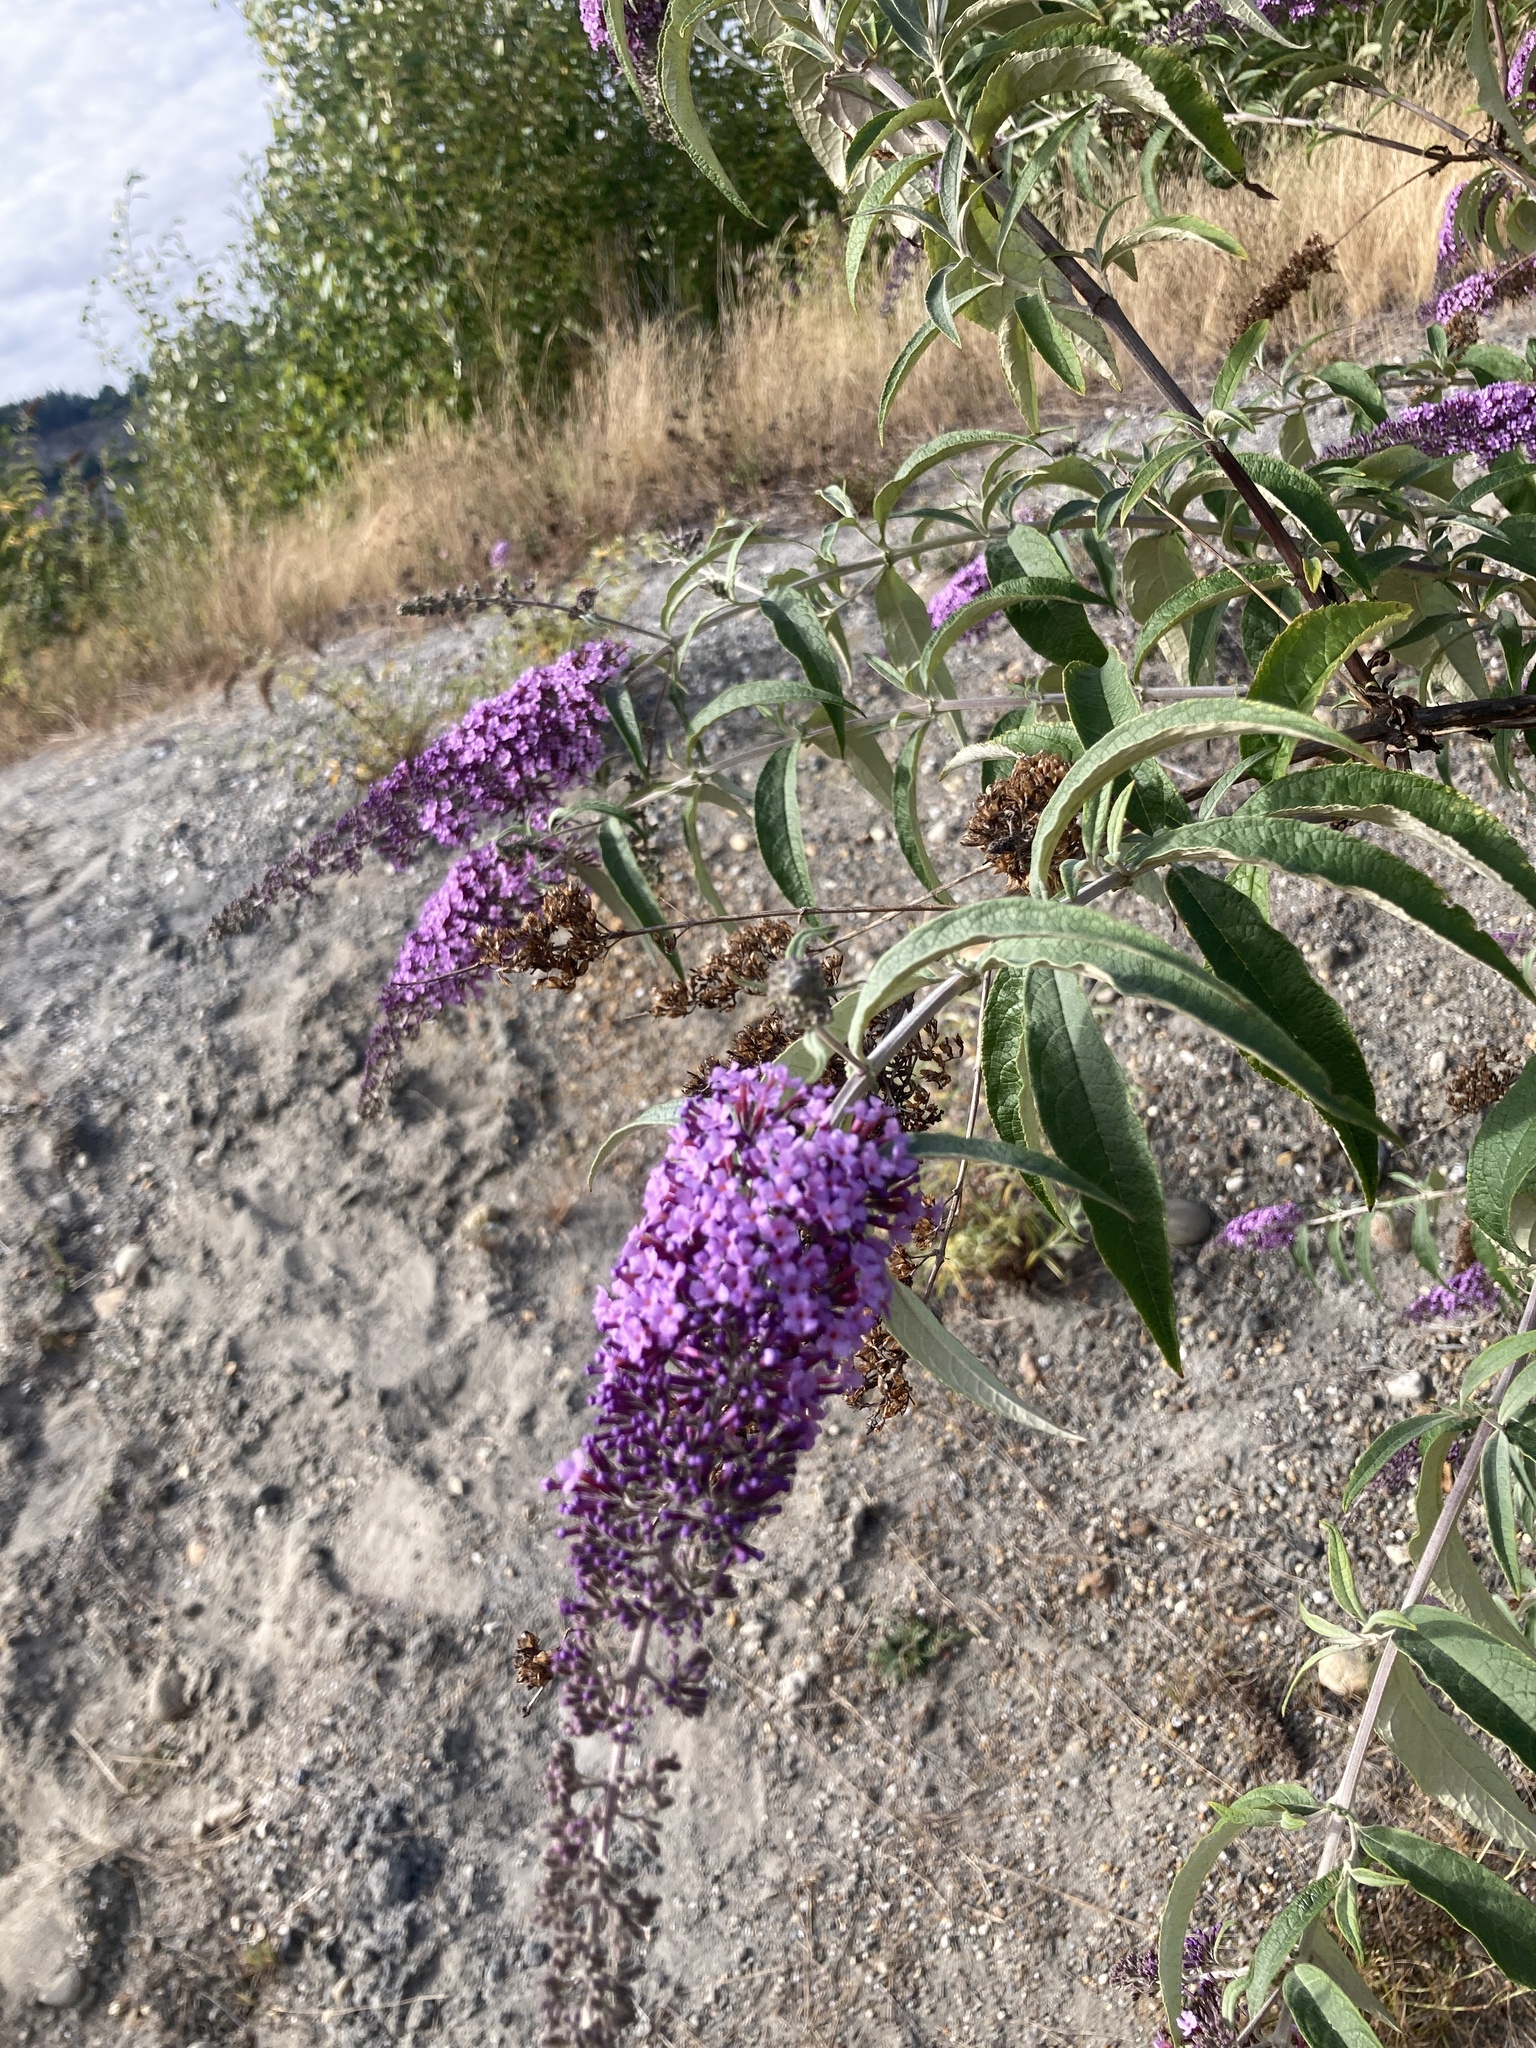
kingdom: Plantae
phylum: Tracheophyta
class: Magnoliopsida
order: Lamiales
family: Scrophulariaceae
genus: Buddleja
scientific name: Buddleja davidii
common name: Butterfly-bush
